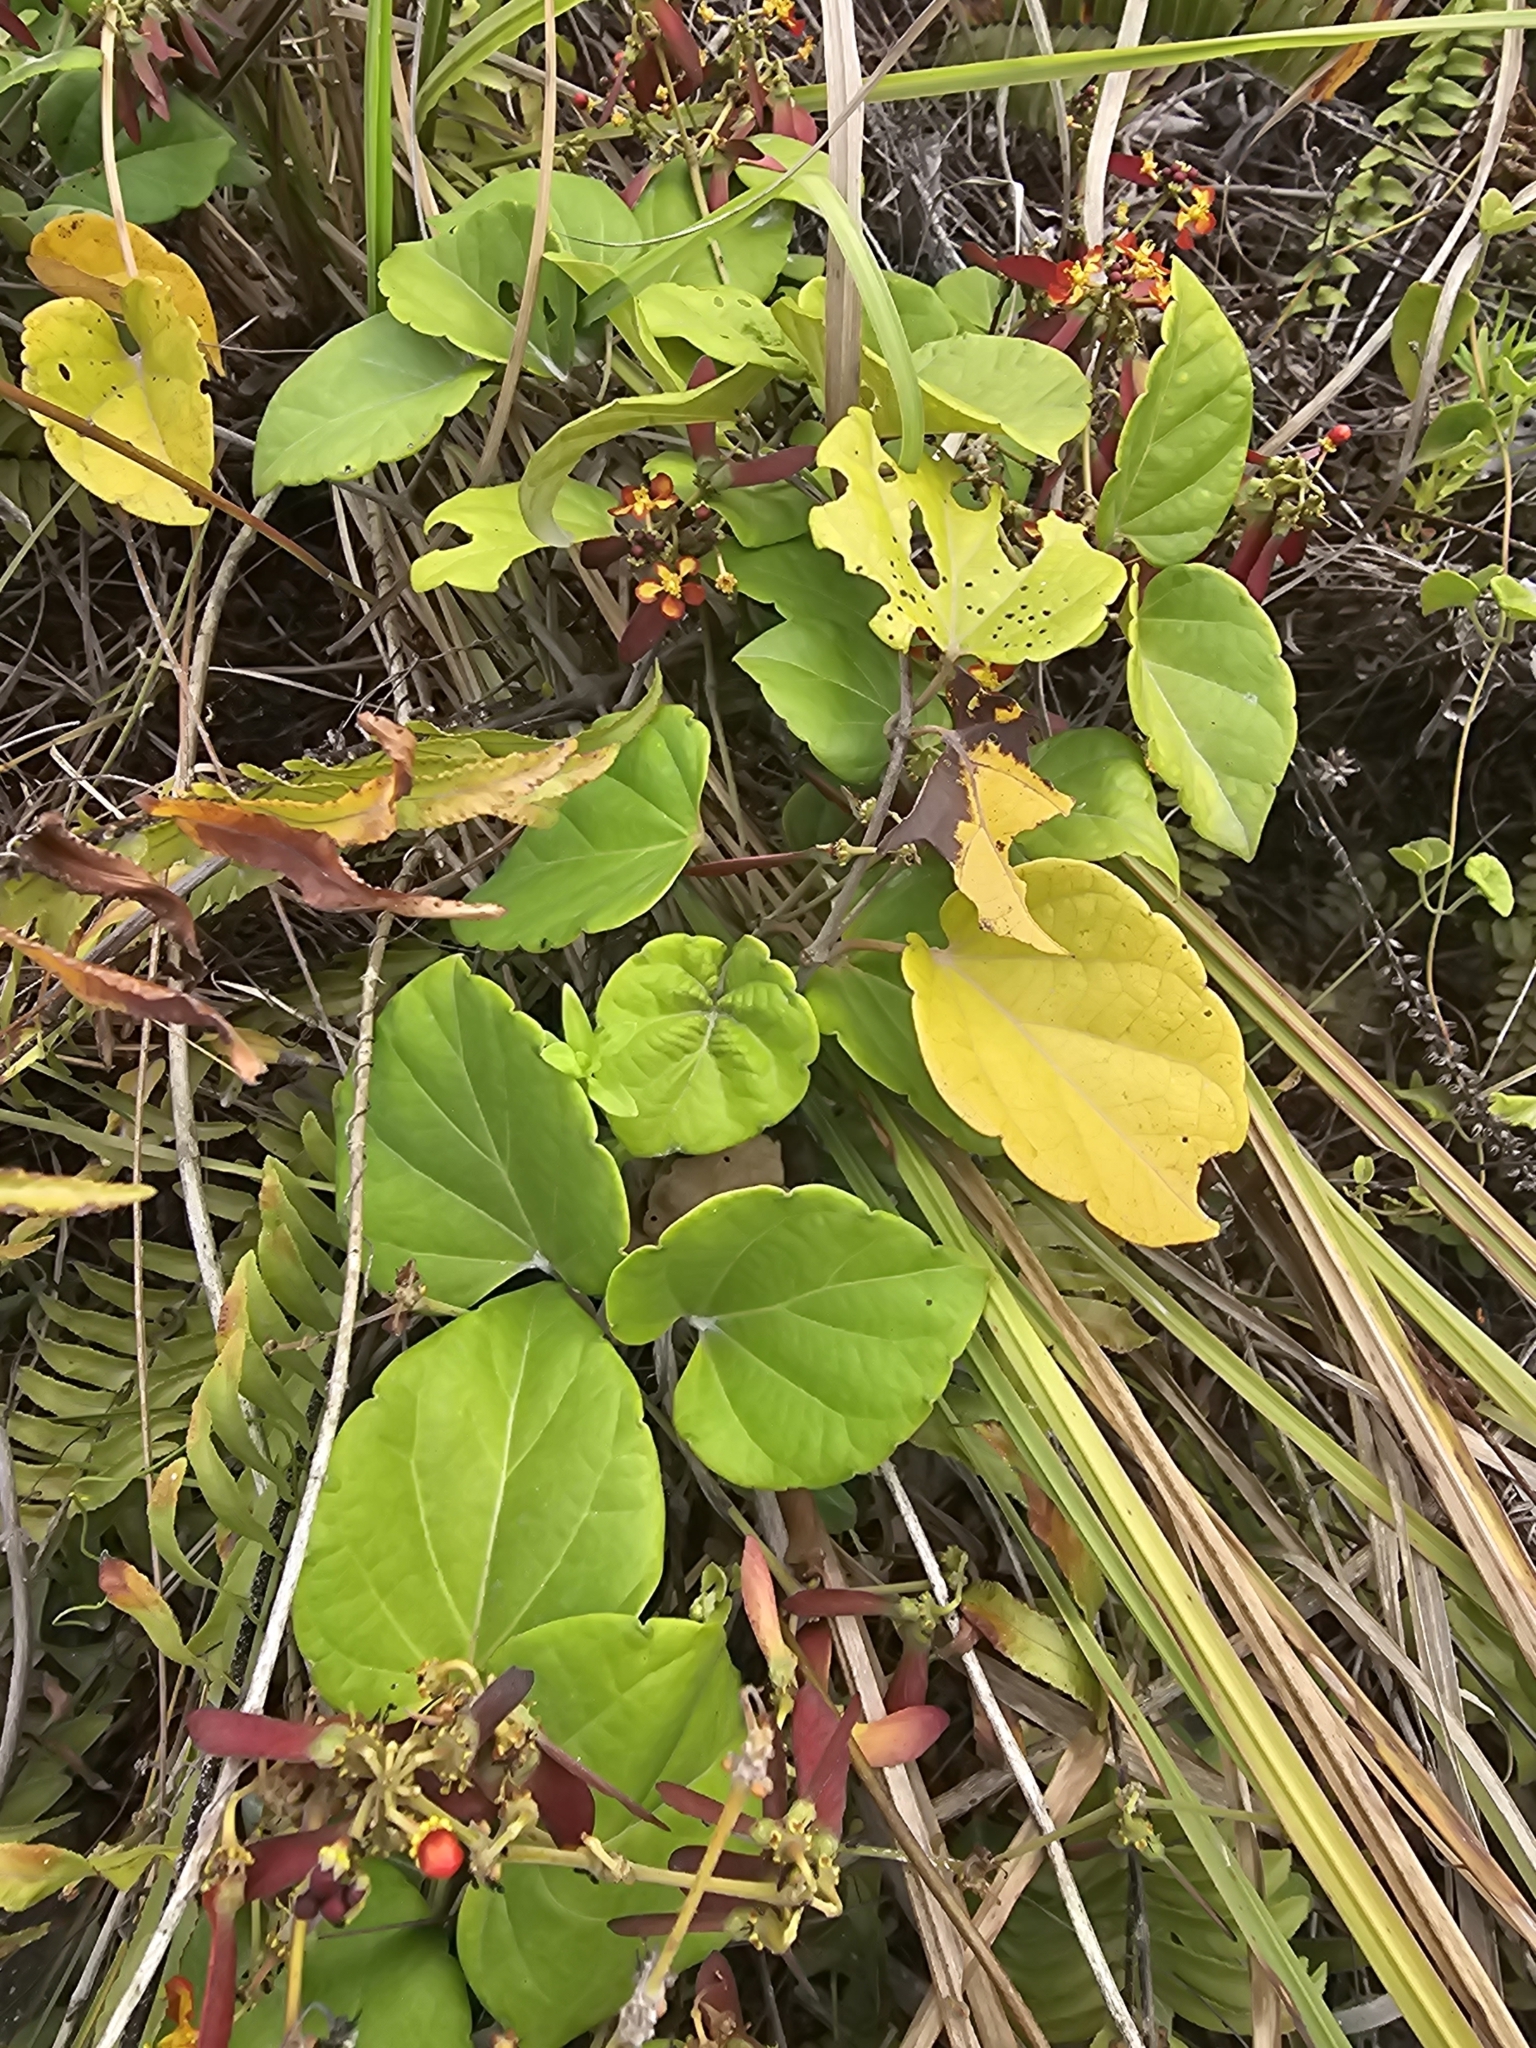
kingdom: Plantae
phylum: Tracheophyta
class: Magnoliopsida
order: Malpighiales
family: Malpighiaceae
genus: Stigmaphyllon
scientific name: Stigmaphyllon sinuatum
